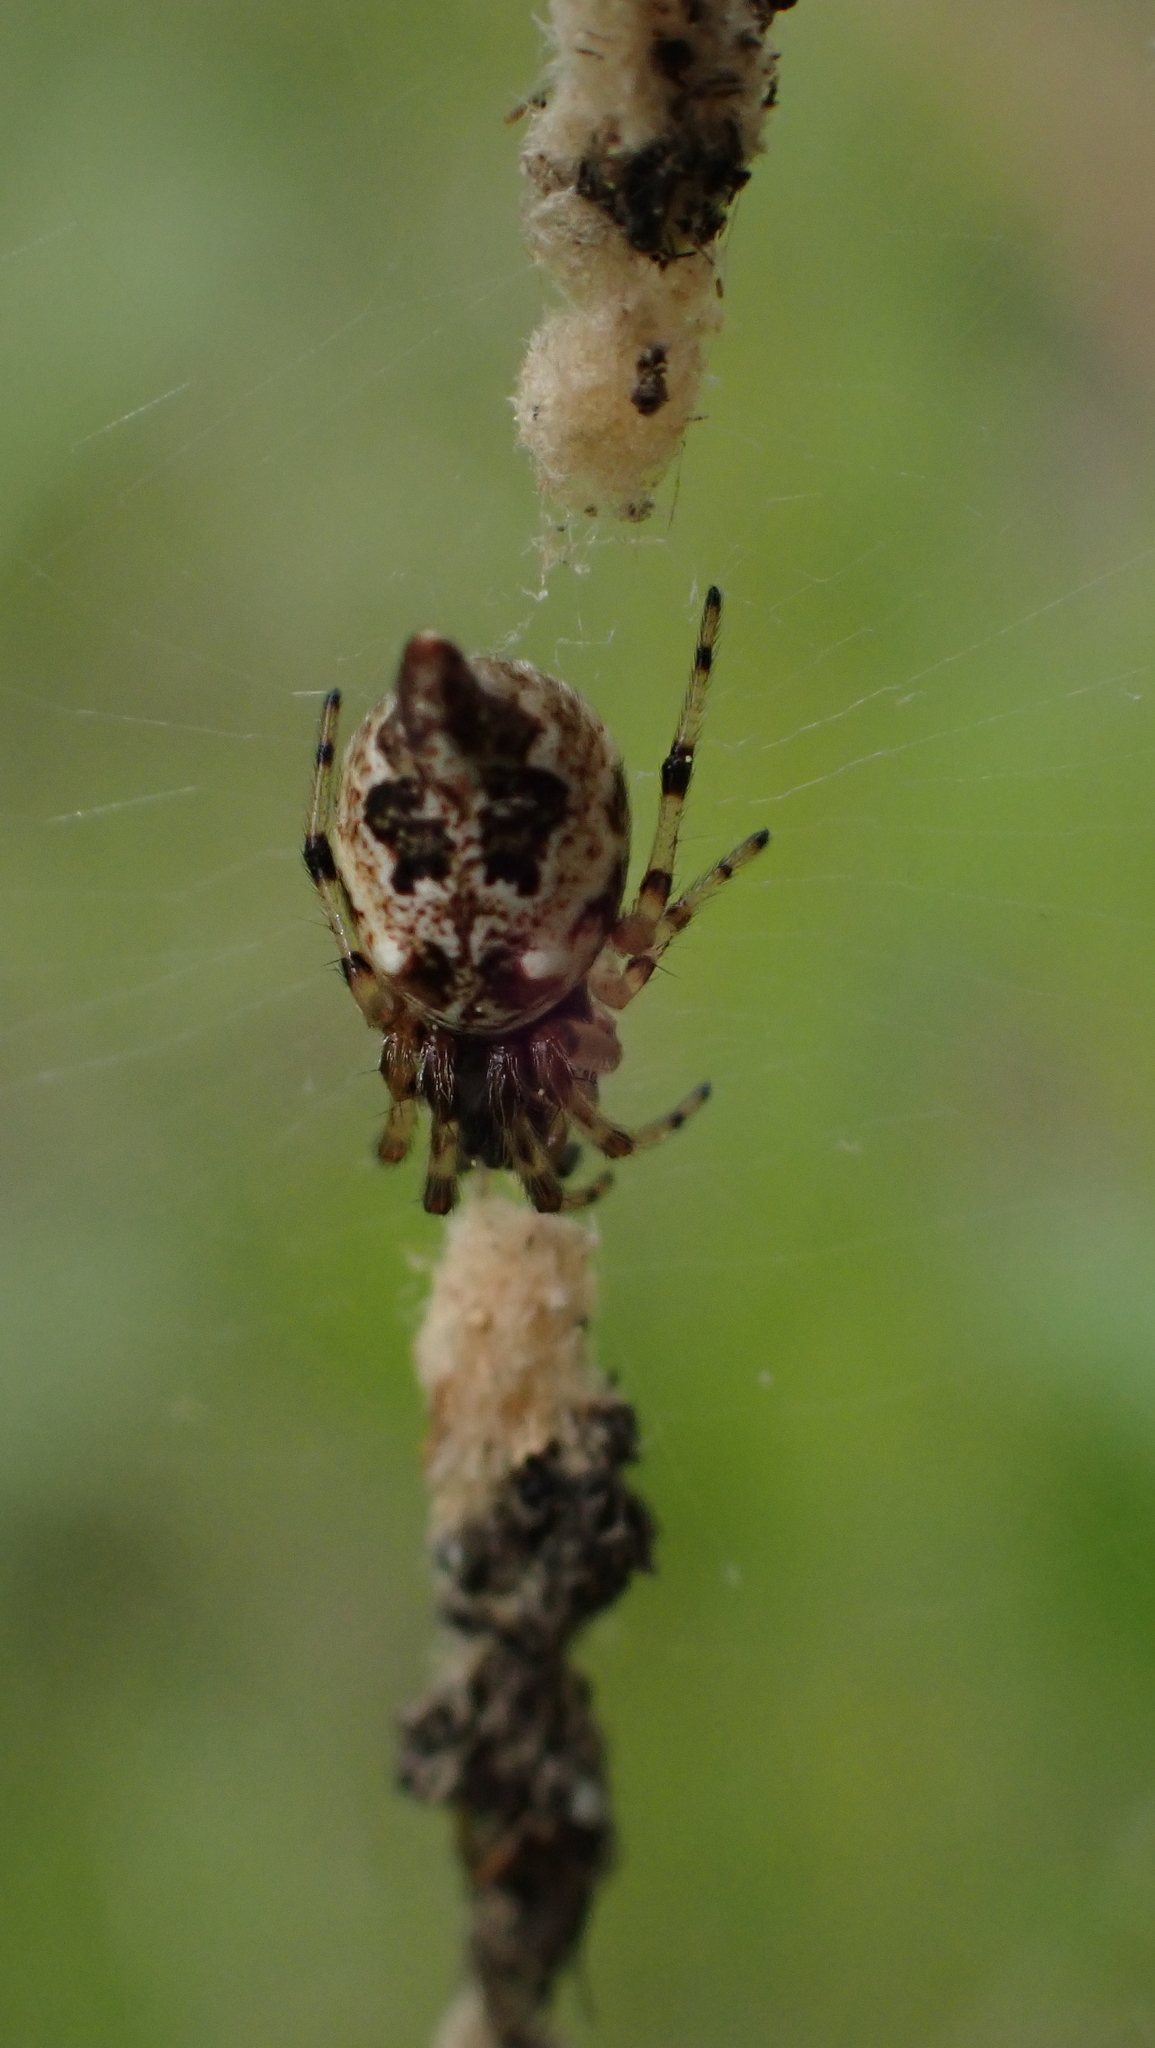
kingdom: Animalia
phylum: Arthropoda
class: Arachnida
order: Araneae
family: Araneidae
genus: Cyclosa
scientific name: Cyclosa turbinata
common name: Orb weavers
